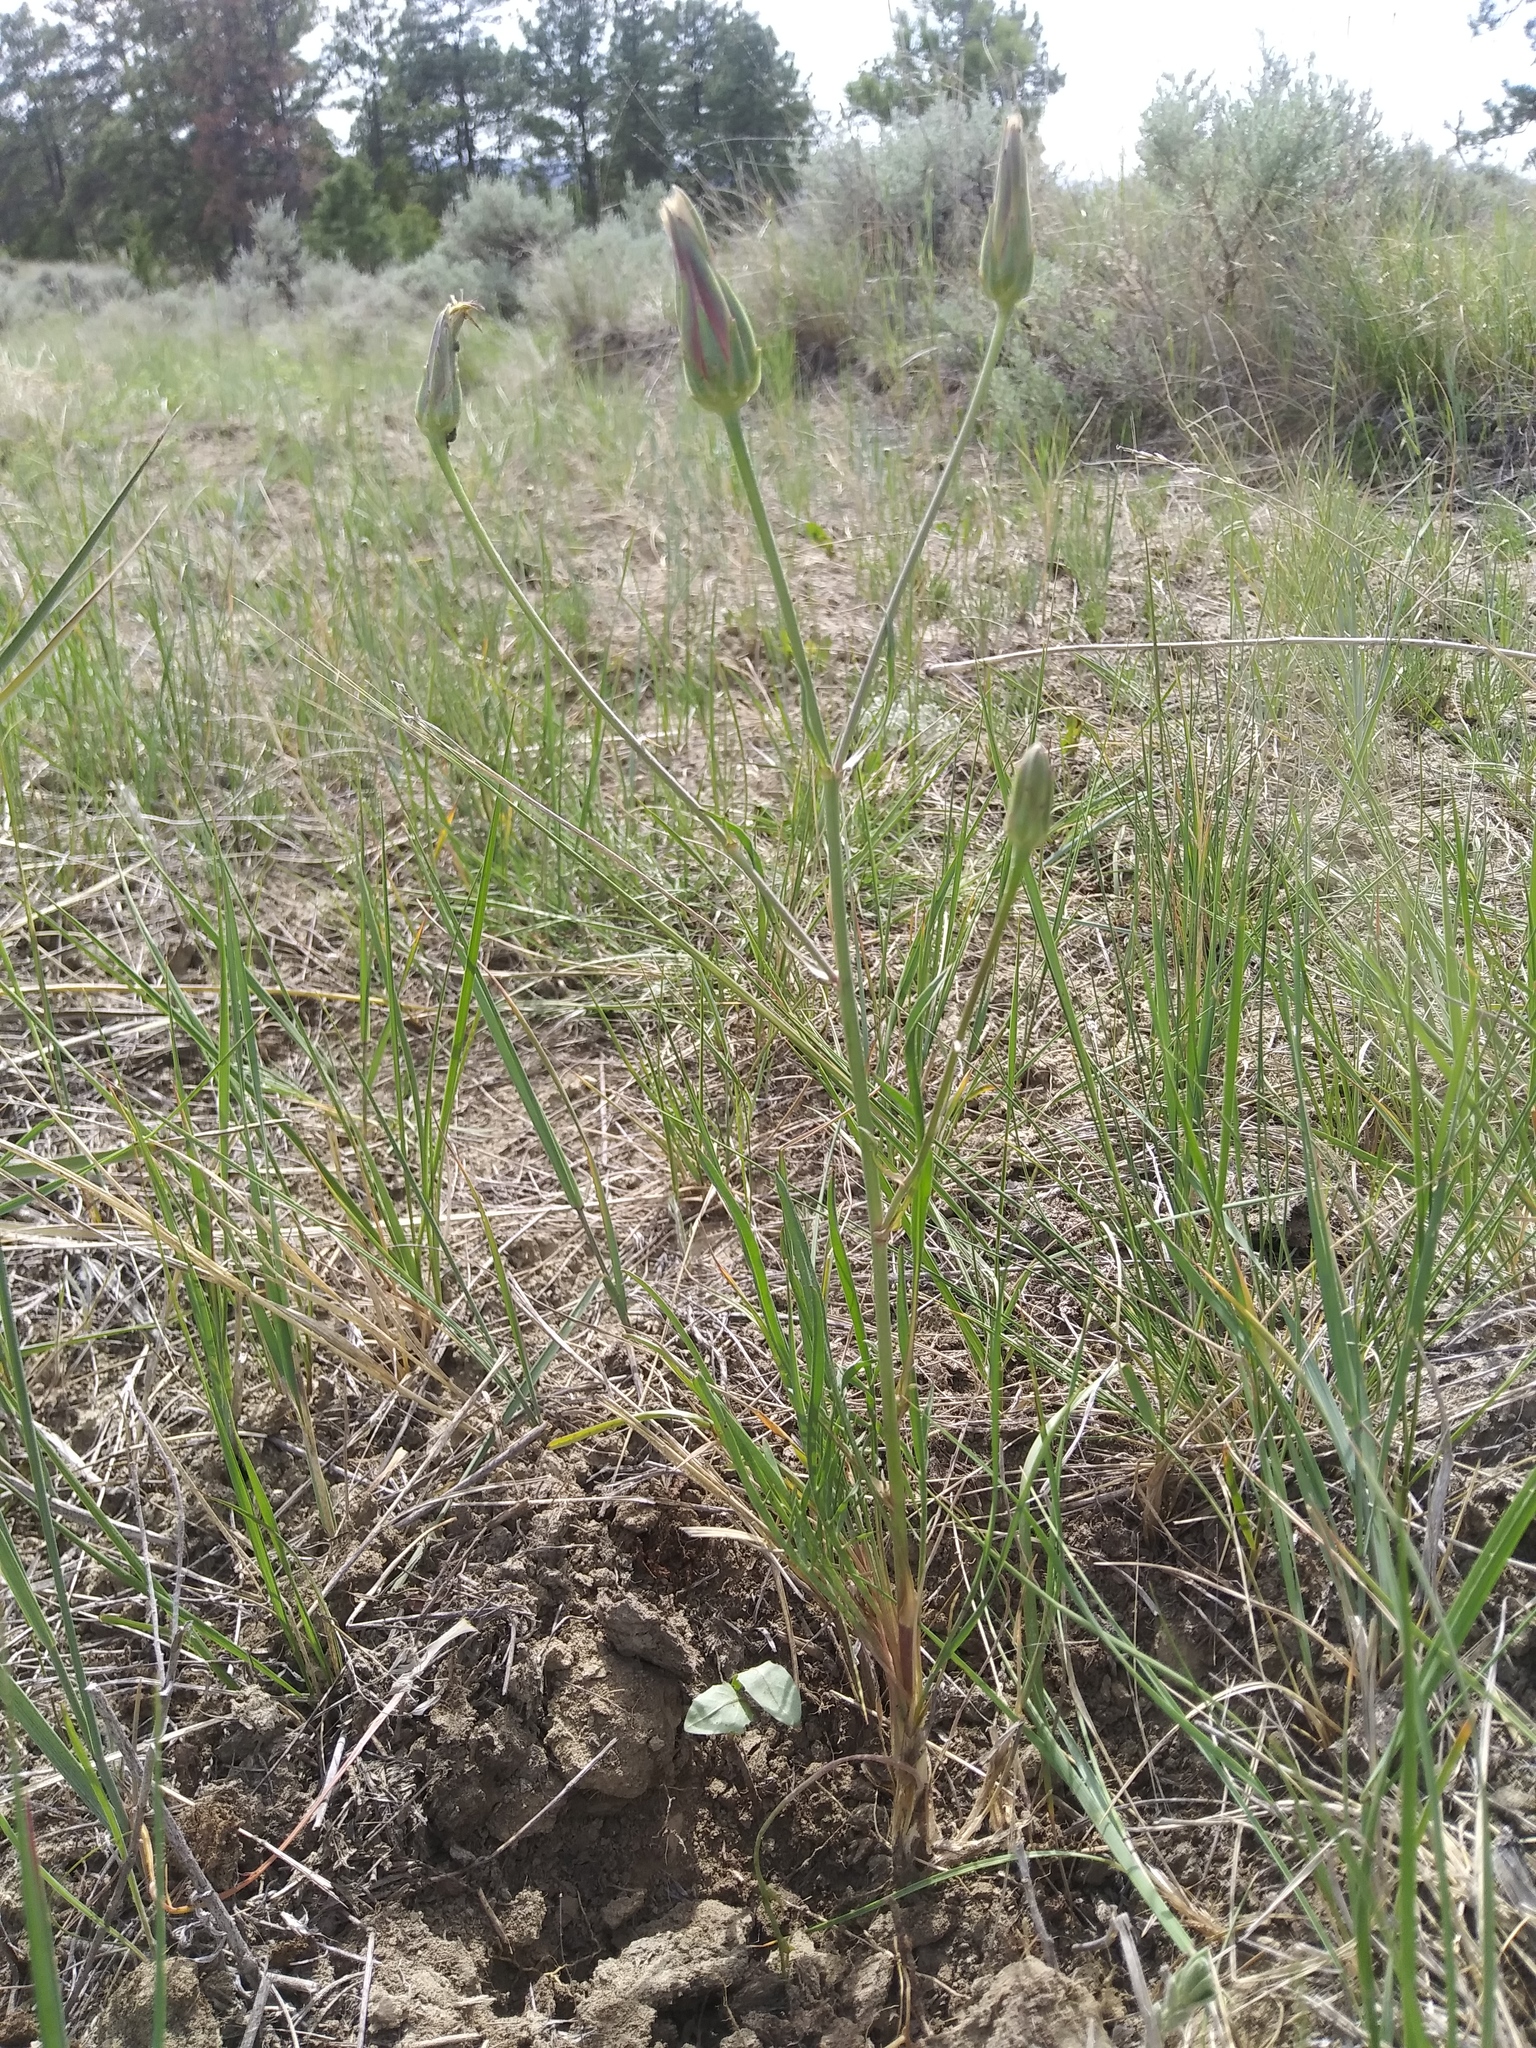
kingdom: Plantae
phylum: Tracheophyta
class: Magnoliopsida
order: Asterales
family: Asteraceae
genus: Scorzonera
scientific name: Scorzonera laciniata
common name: Cutleaf vipergrass
